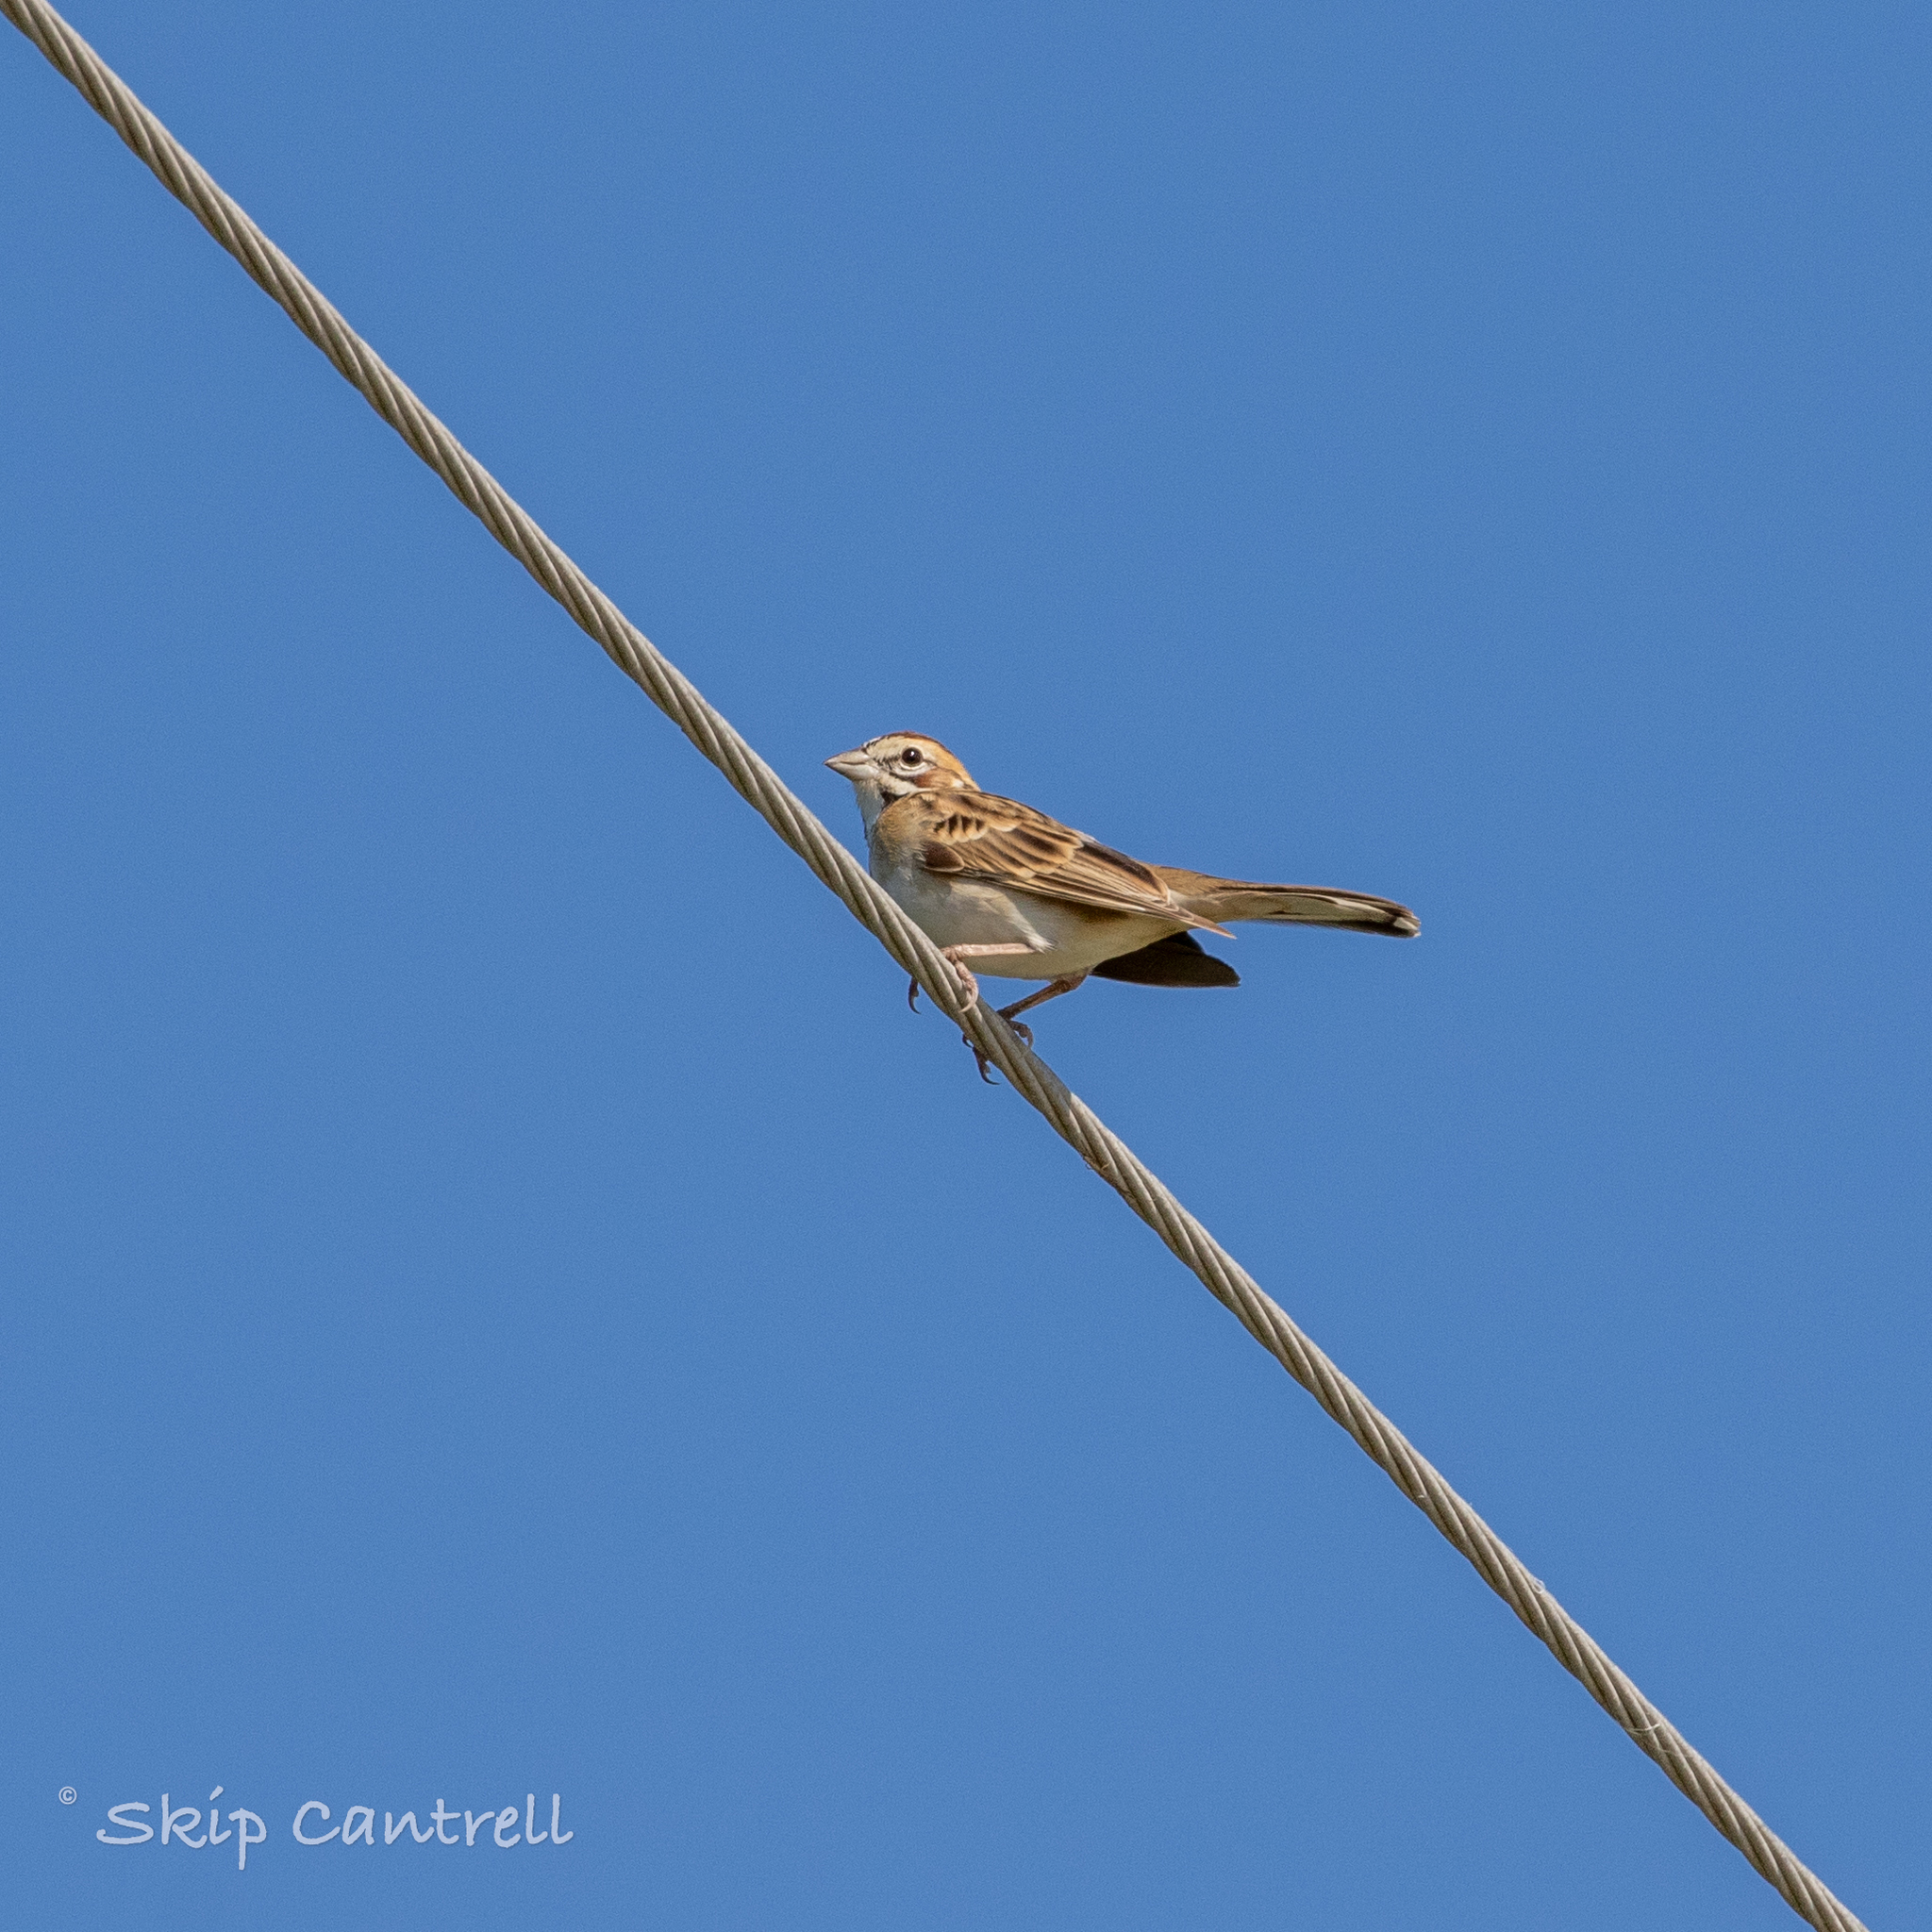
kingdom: Animalia
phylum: Chordata
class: Aves
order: Passeriformes
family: Passerellidae
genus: Chondestes
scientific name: Chondestes grammacus
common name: Lark sparrow
